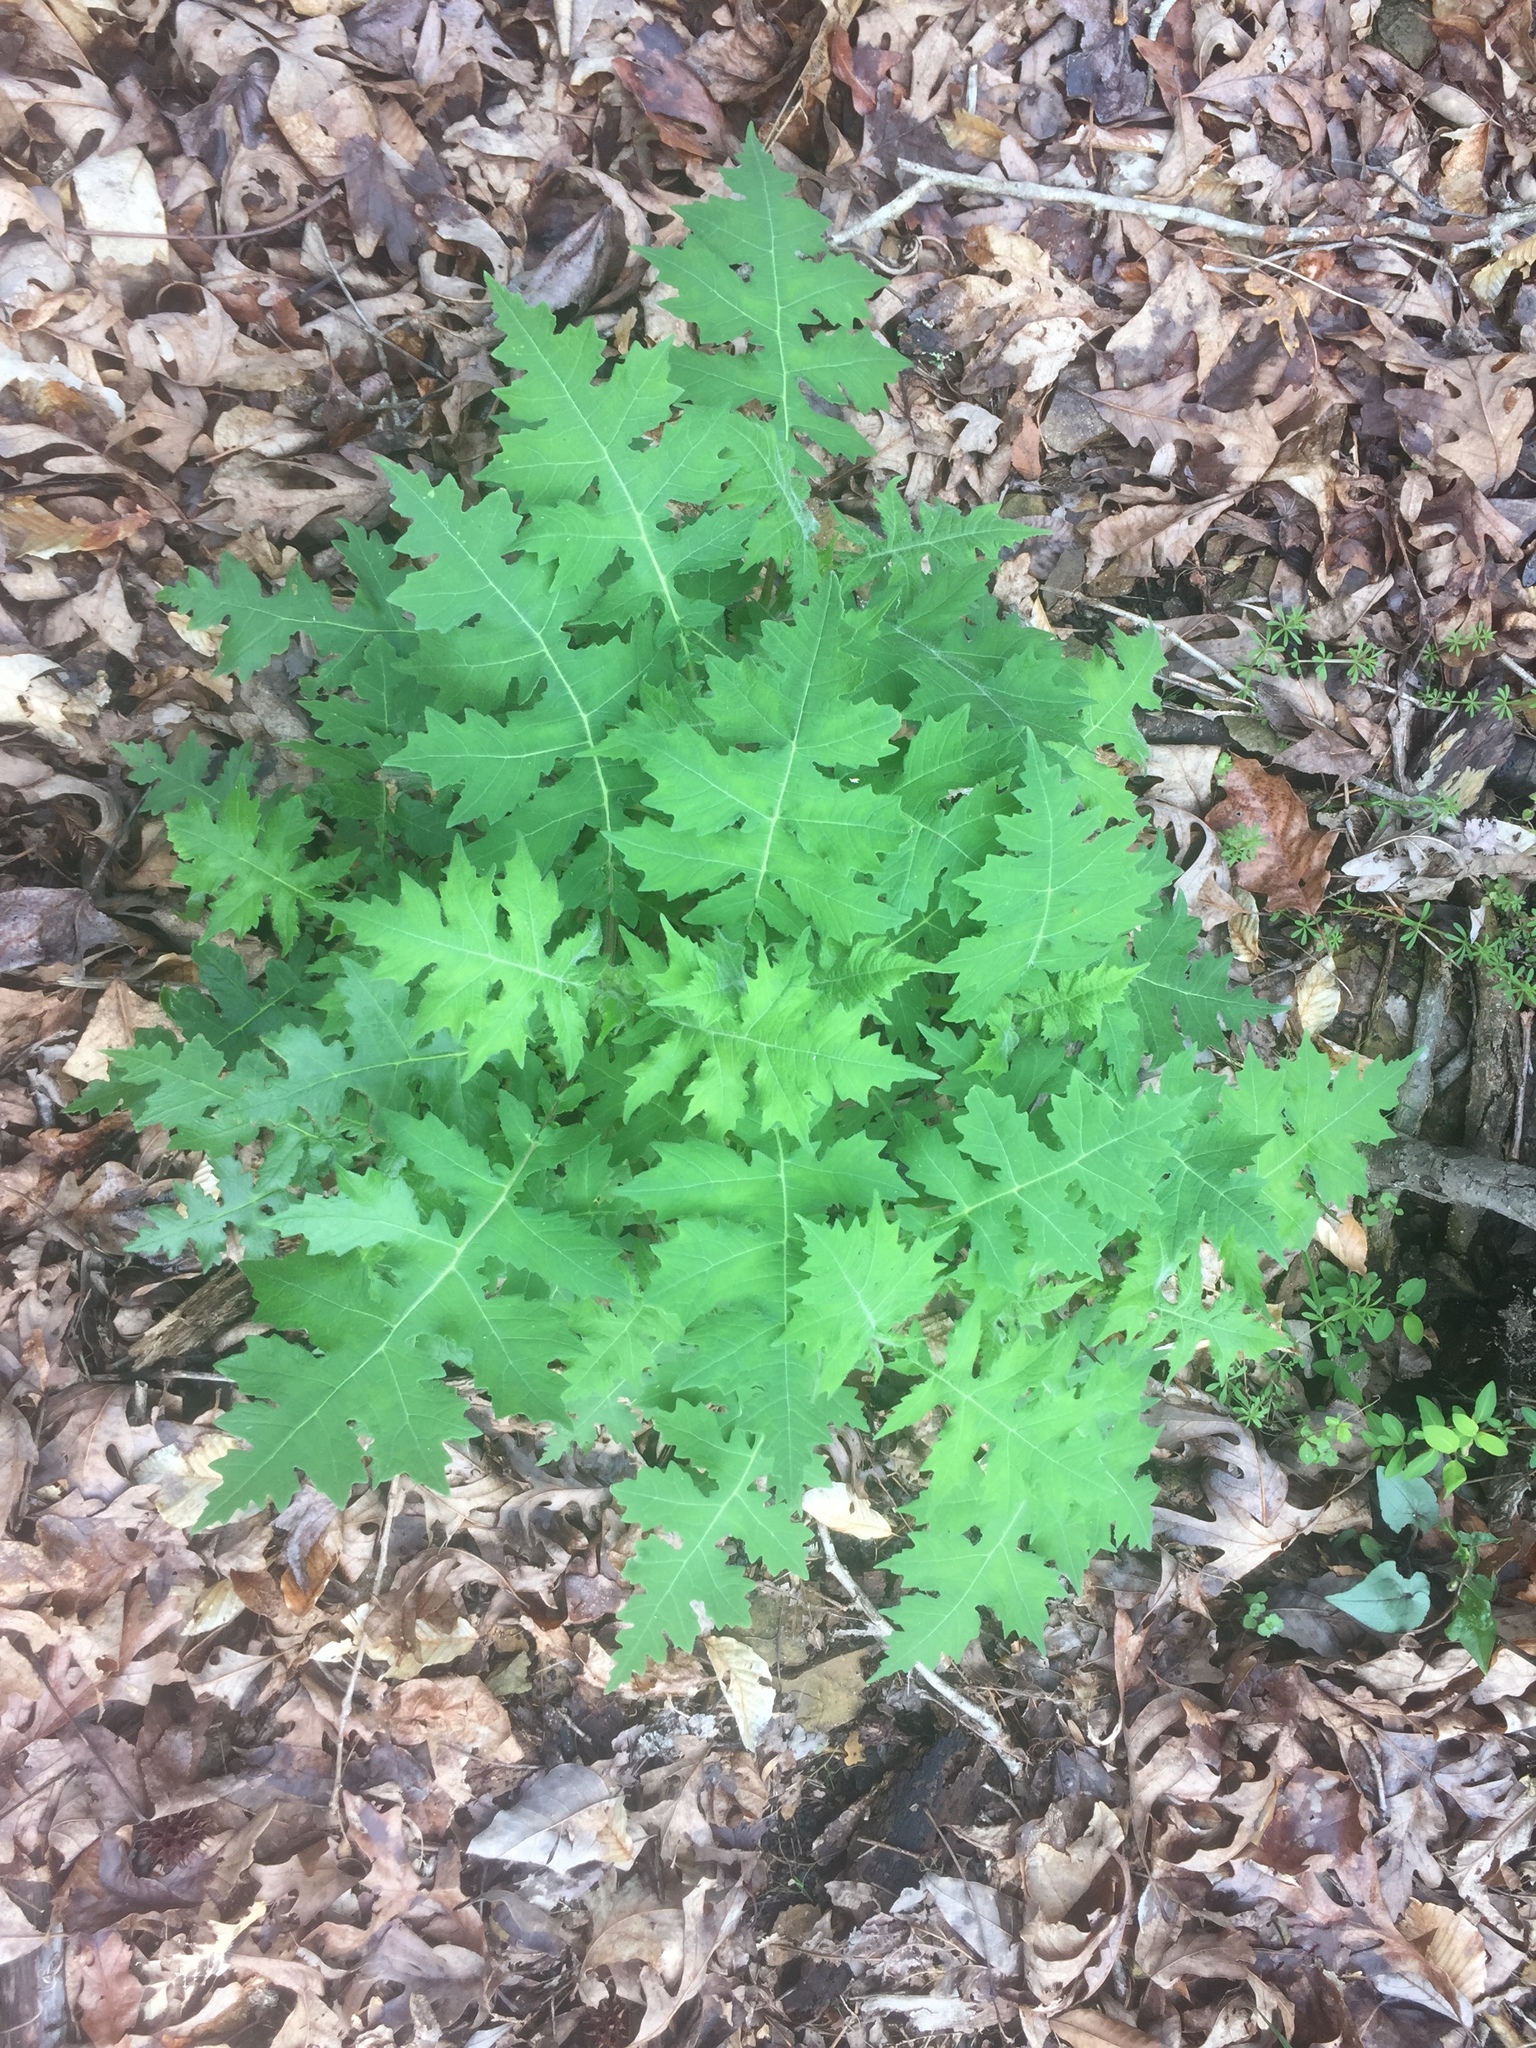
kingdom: Plantae
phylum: Tracheophyta
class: Magnoliopsida
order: Asterales
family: Asteraceae
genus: Polymnia
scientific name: Polymnia canadensis
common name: Pale-flowered leafcup
